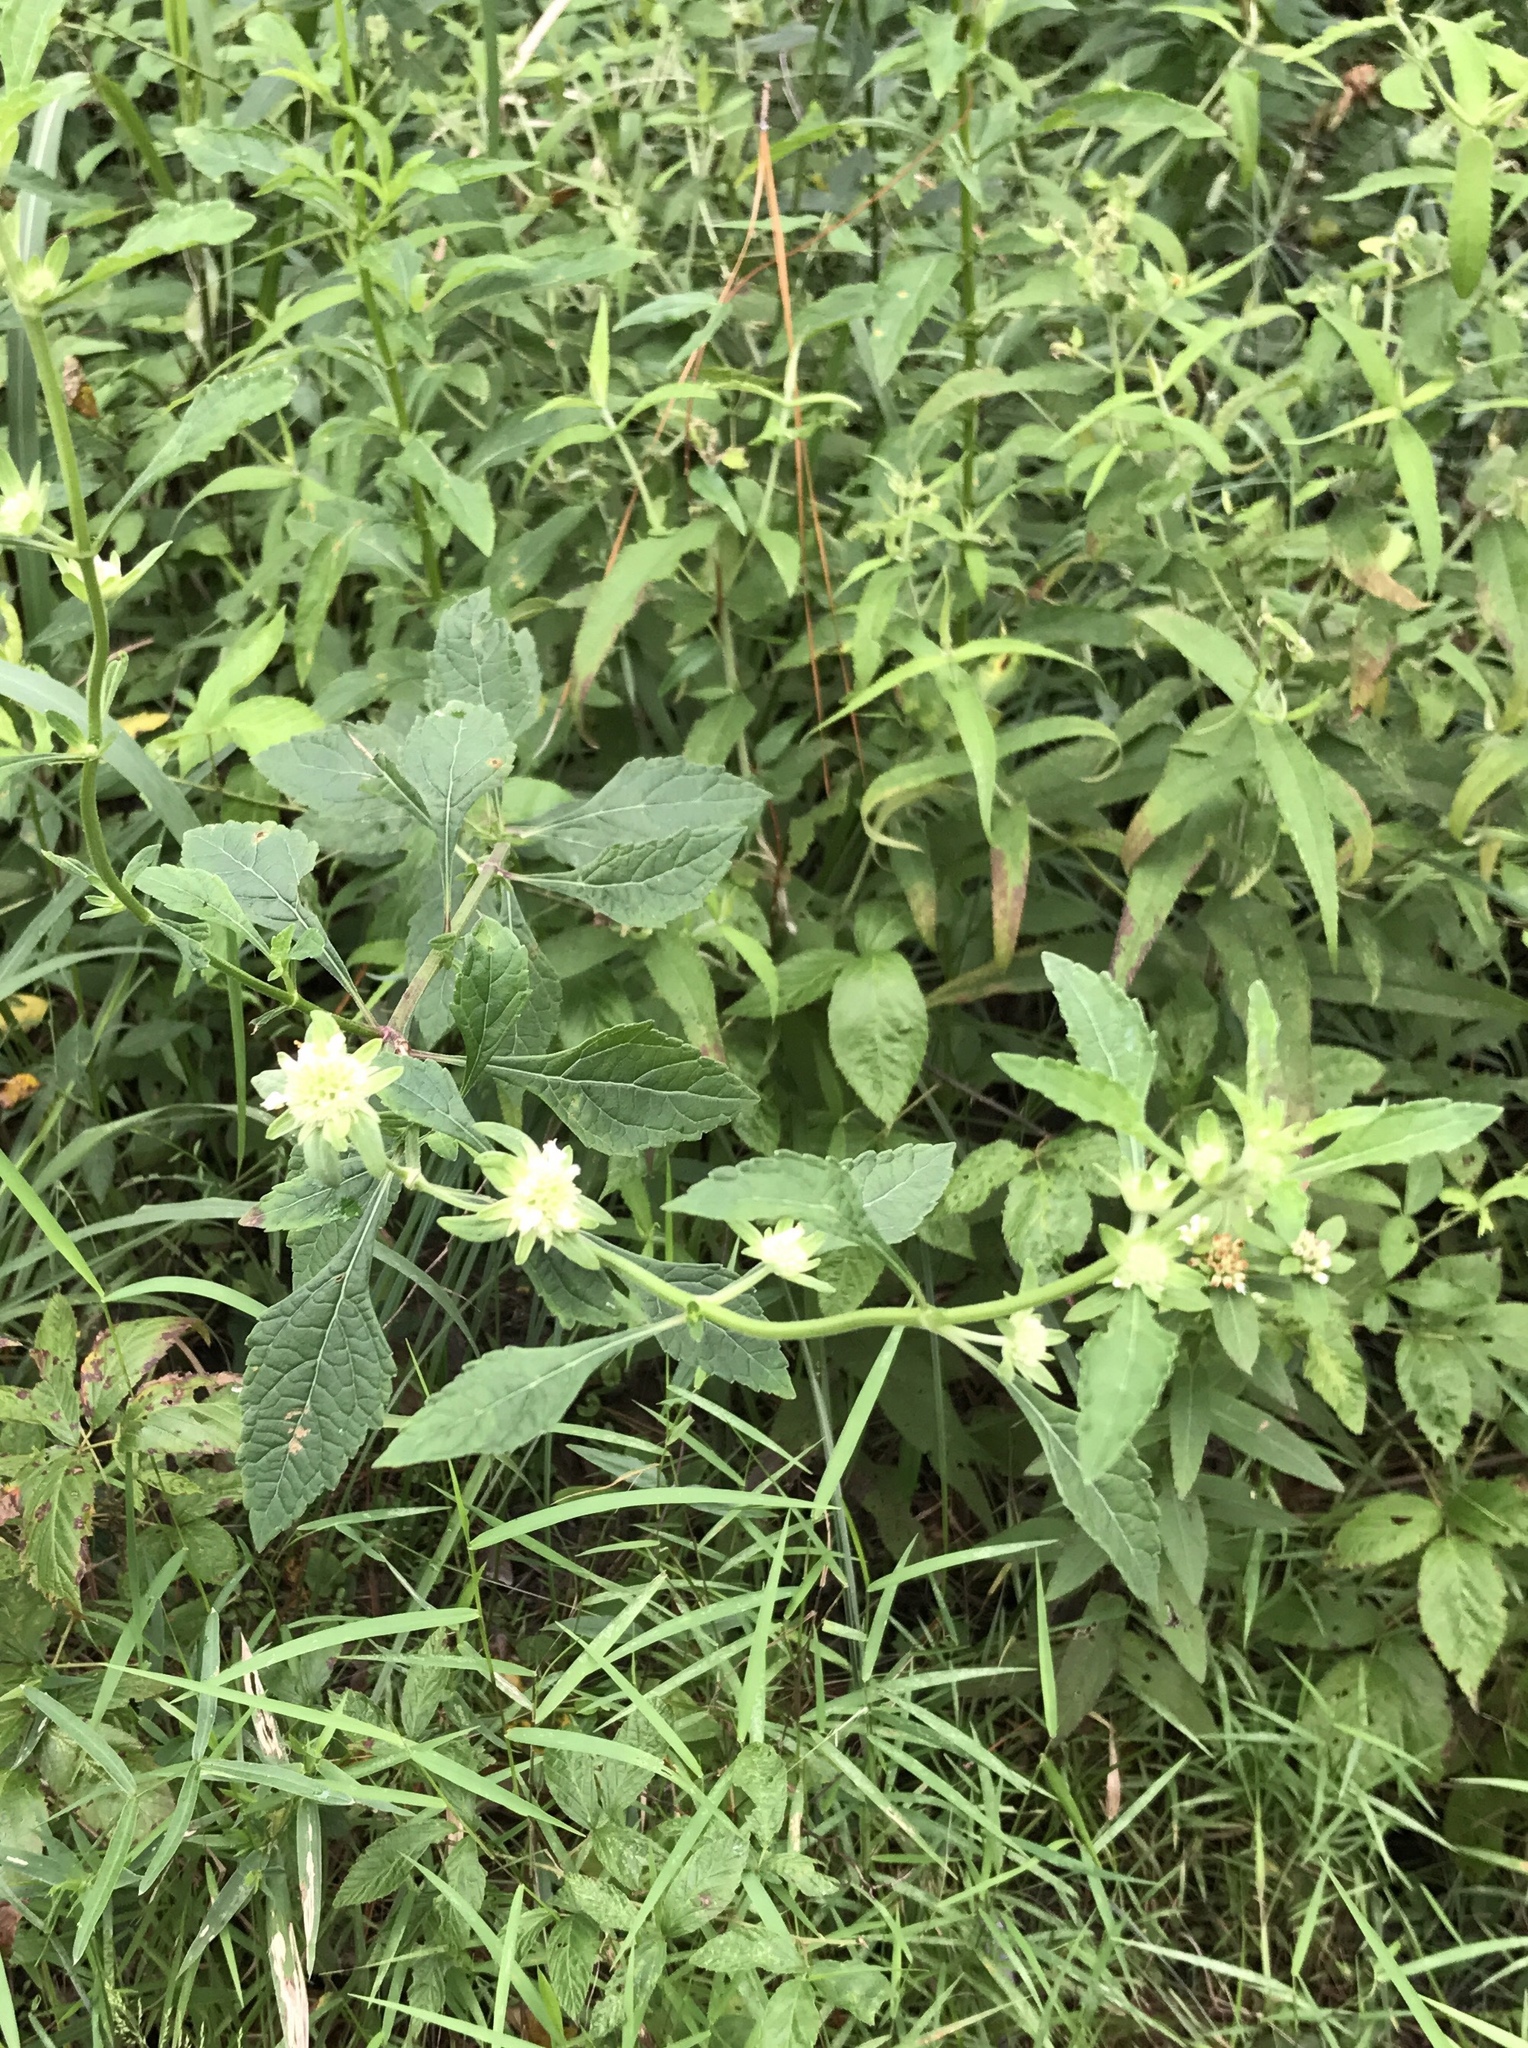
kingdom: Plantae
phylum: Tracheophyta
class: Magnoliopsida
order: Lamiales
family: Lamiaceae
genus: Hyptis
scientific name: Hyptis alata
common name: Cluster bush-mint
